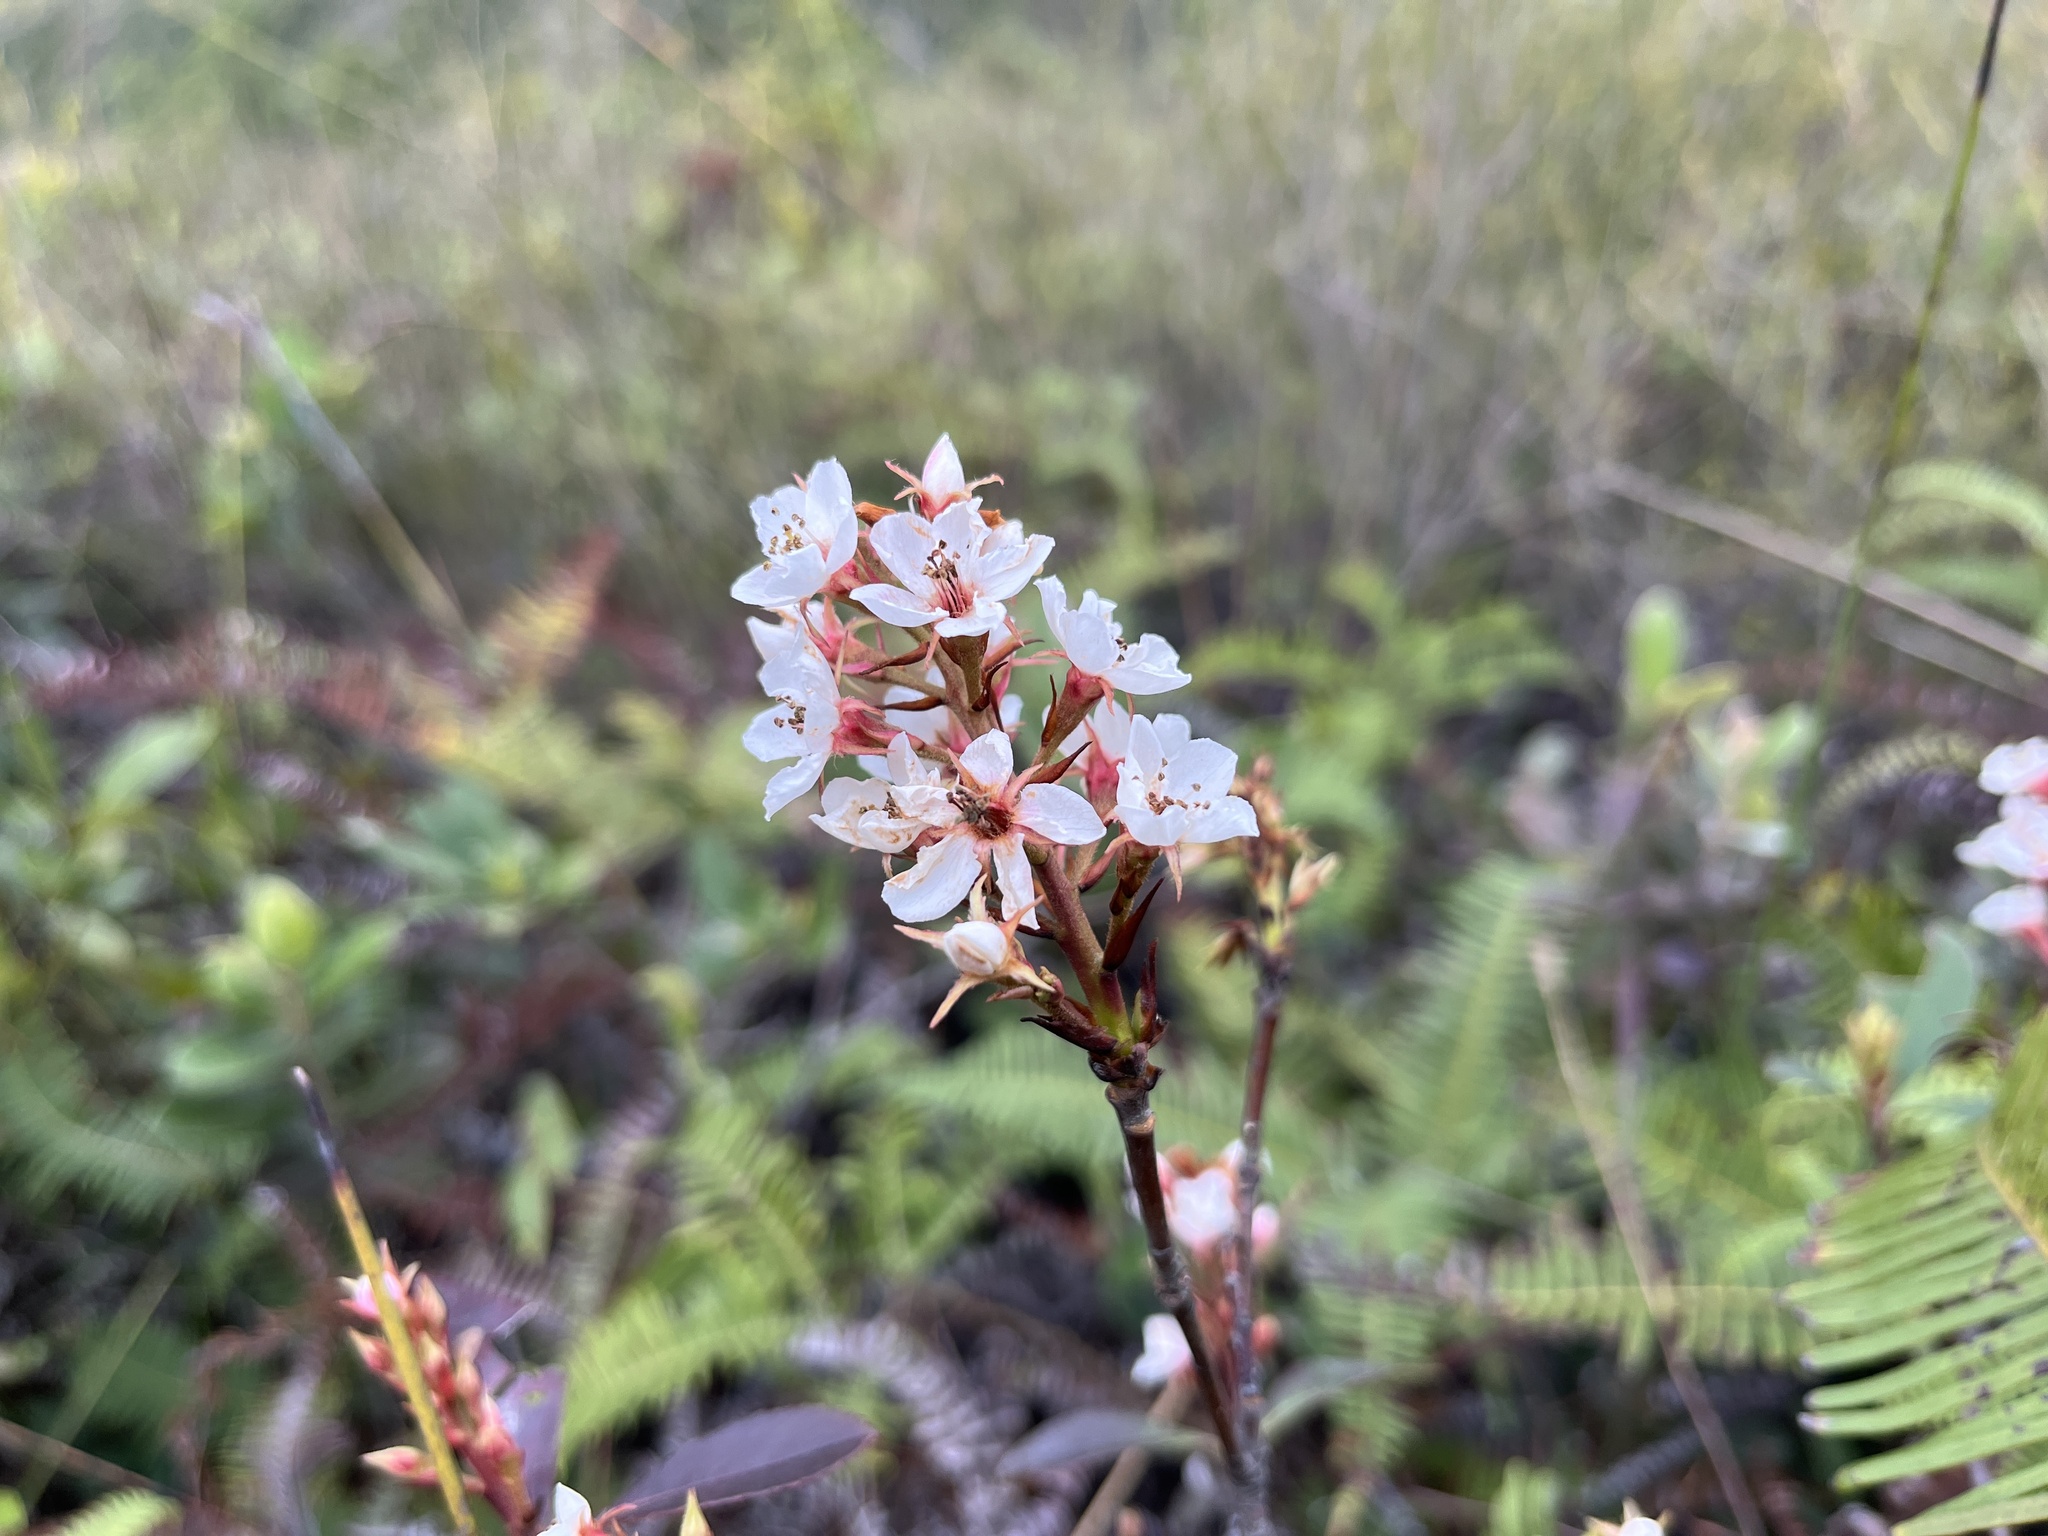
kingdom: Plantae
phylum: Tracheophyta
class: Magnoliopsida
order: Rosales
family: Rosaceae
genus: Rhaphiolepis
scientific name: Rhaphiolepis indica
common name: India-hawthorn
